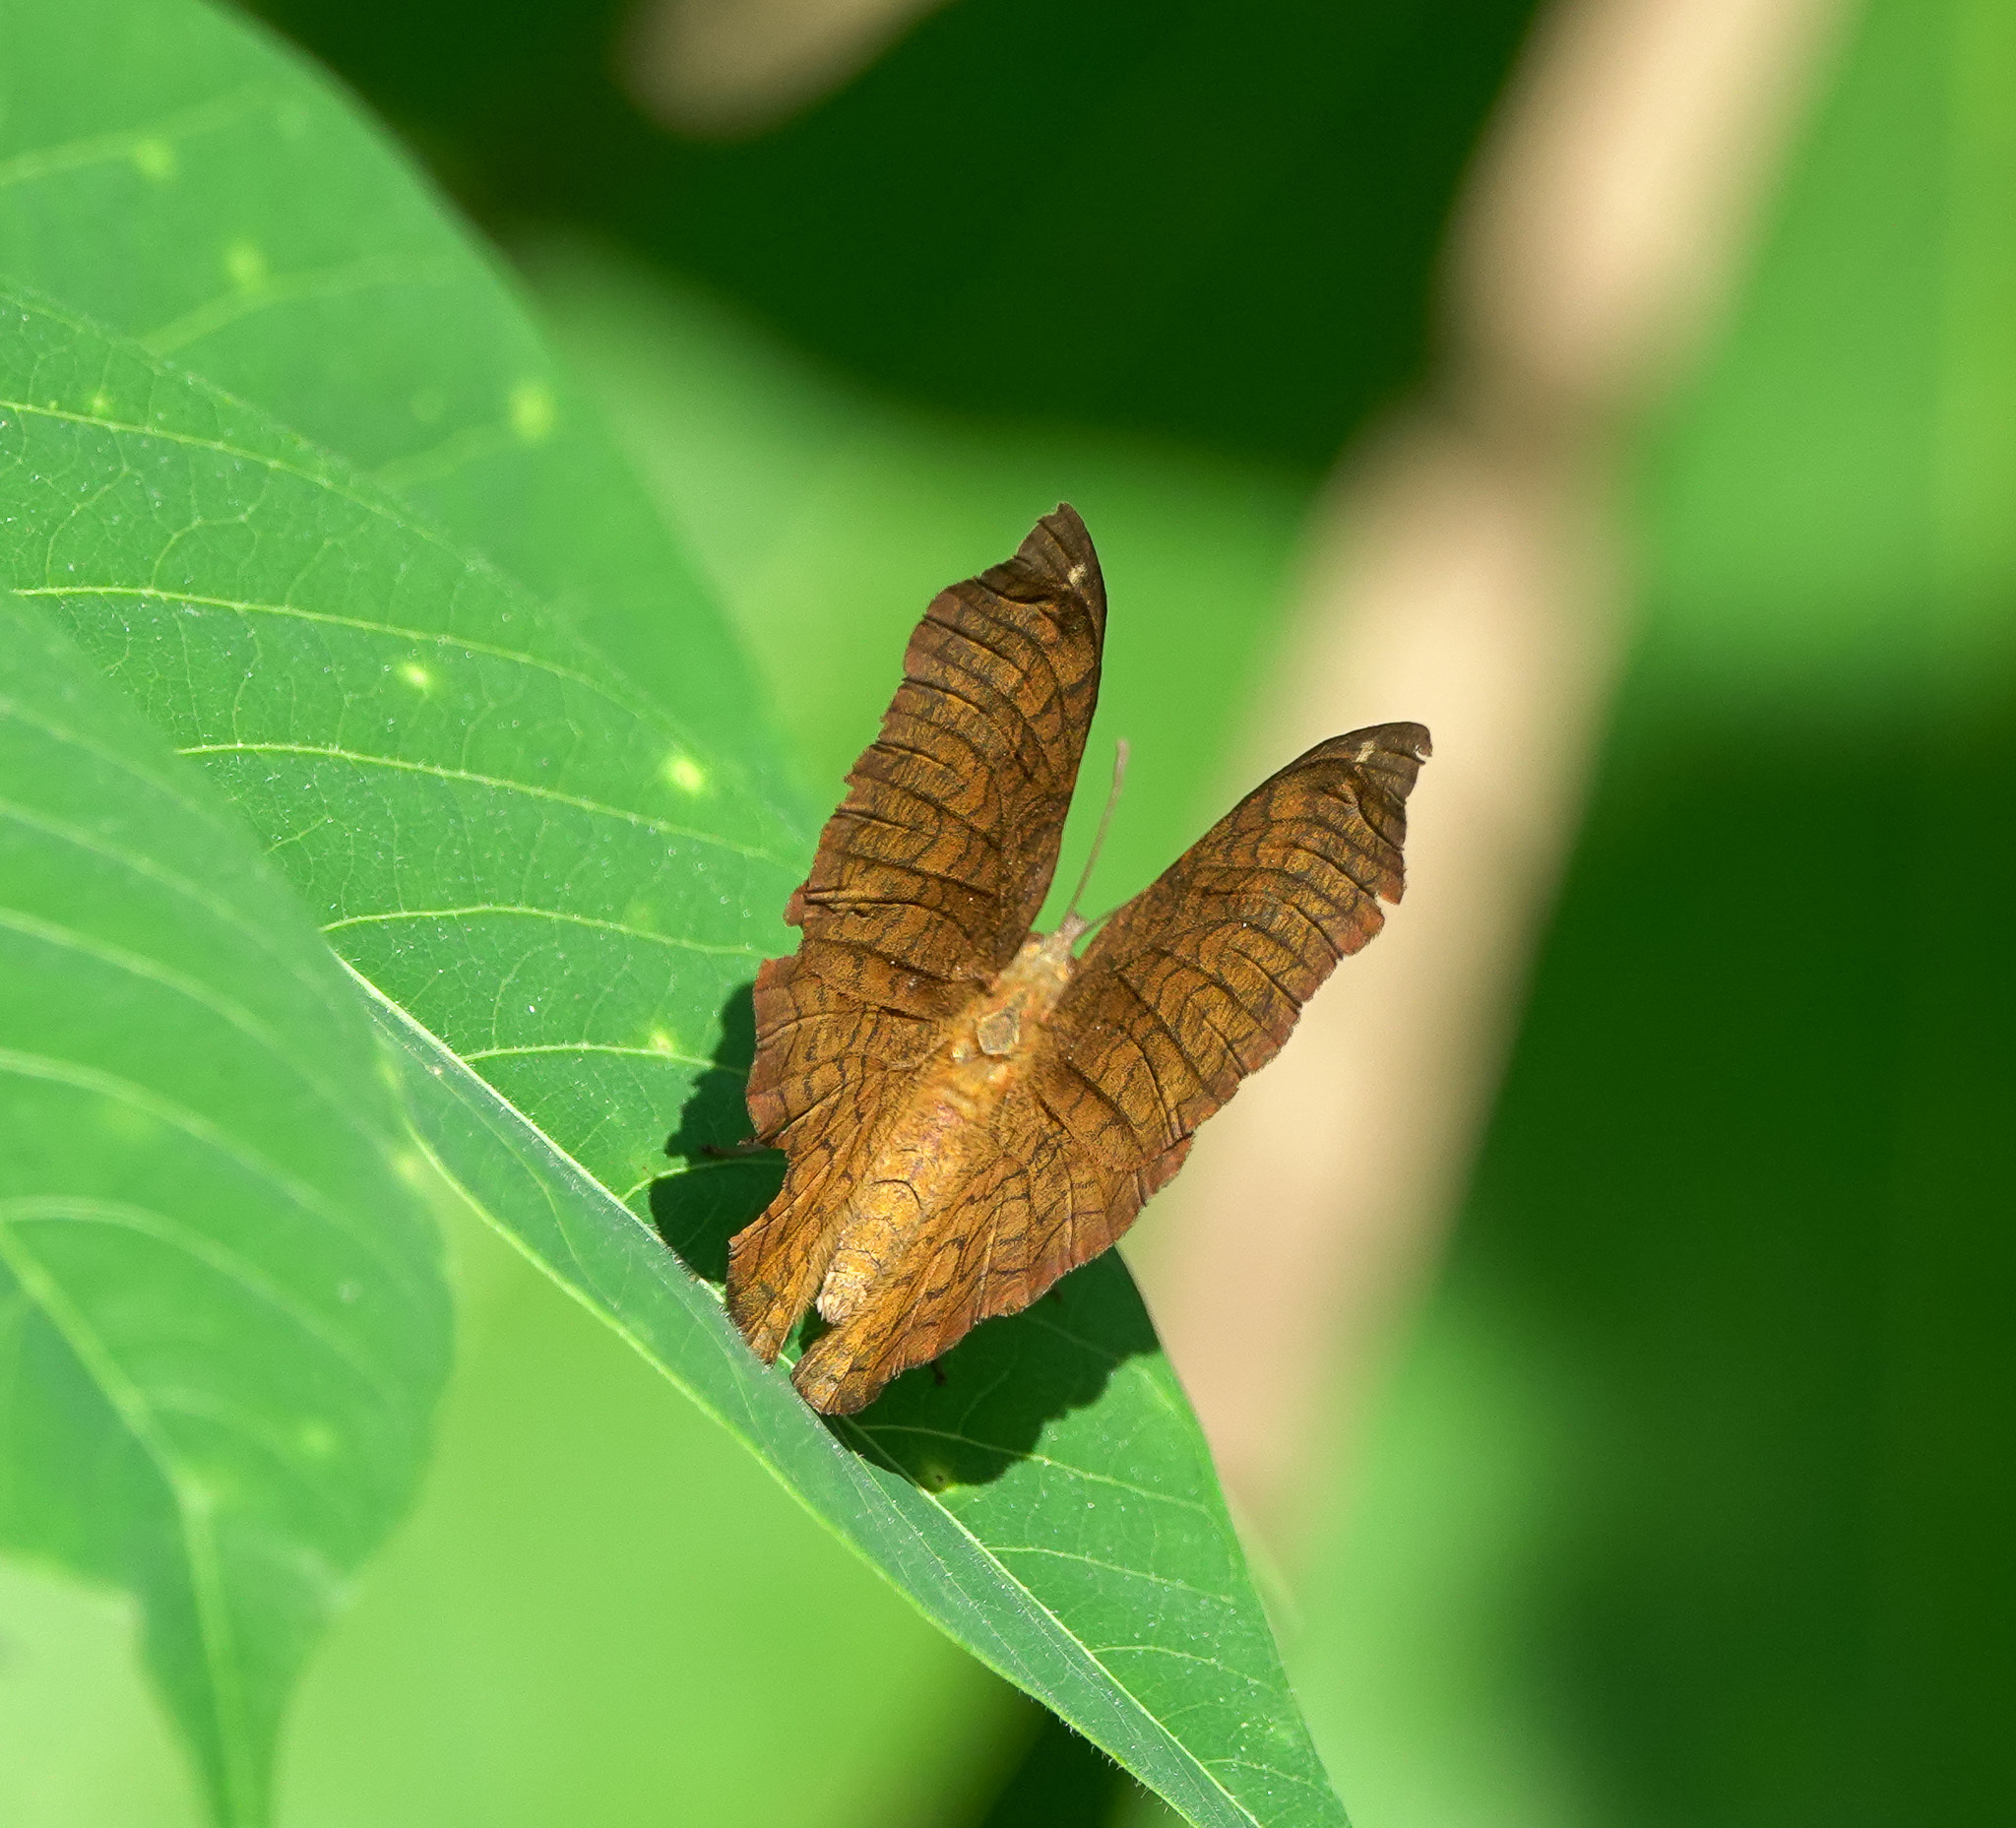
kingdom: Animalia
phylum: Arthropoda
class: Insecta
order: Lepidoptera
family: Nymphalidae
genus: Ariadne
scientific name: Ariadne merione
